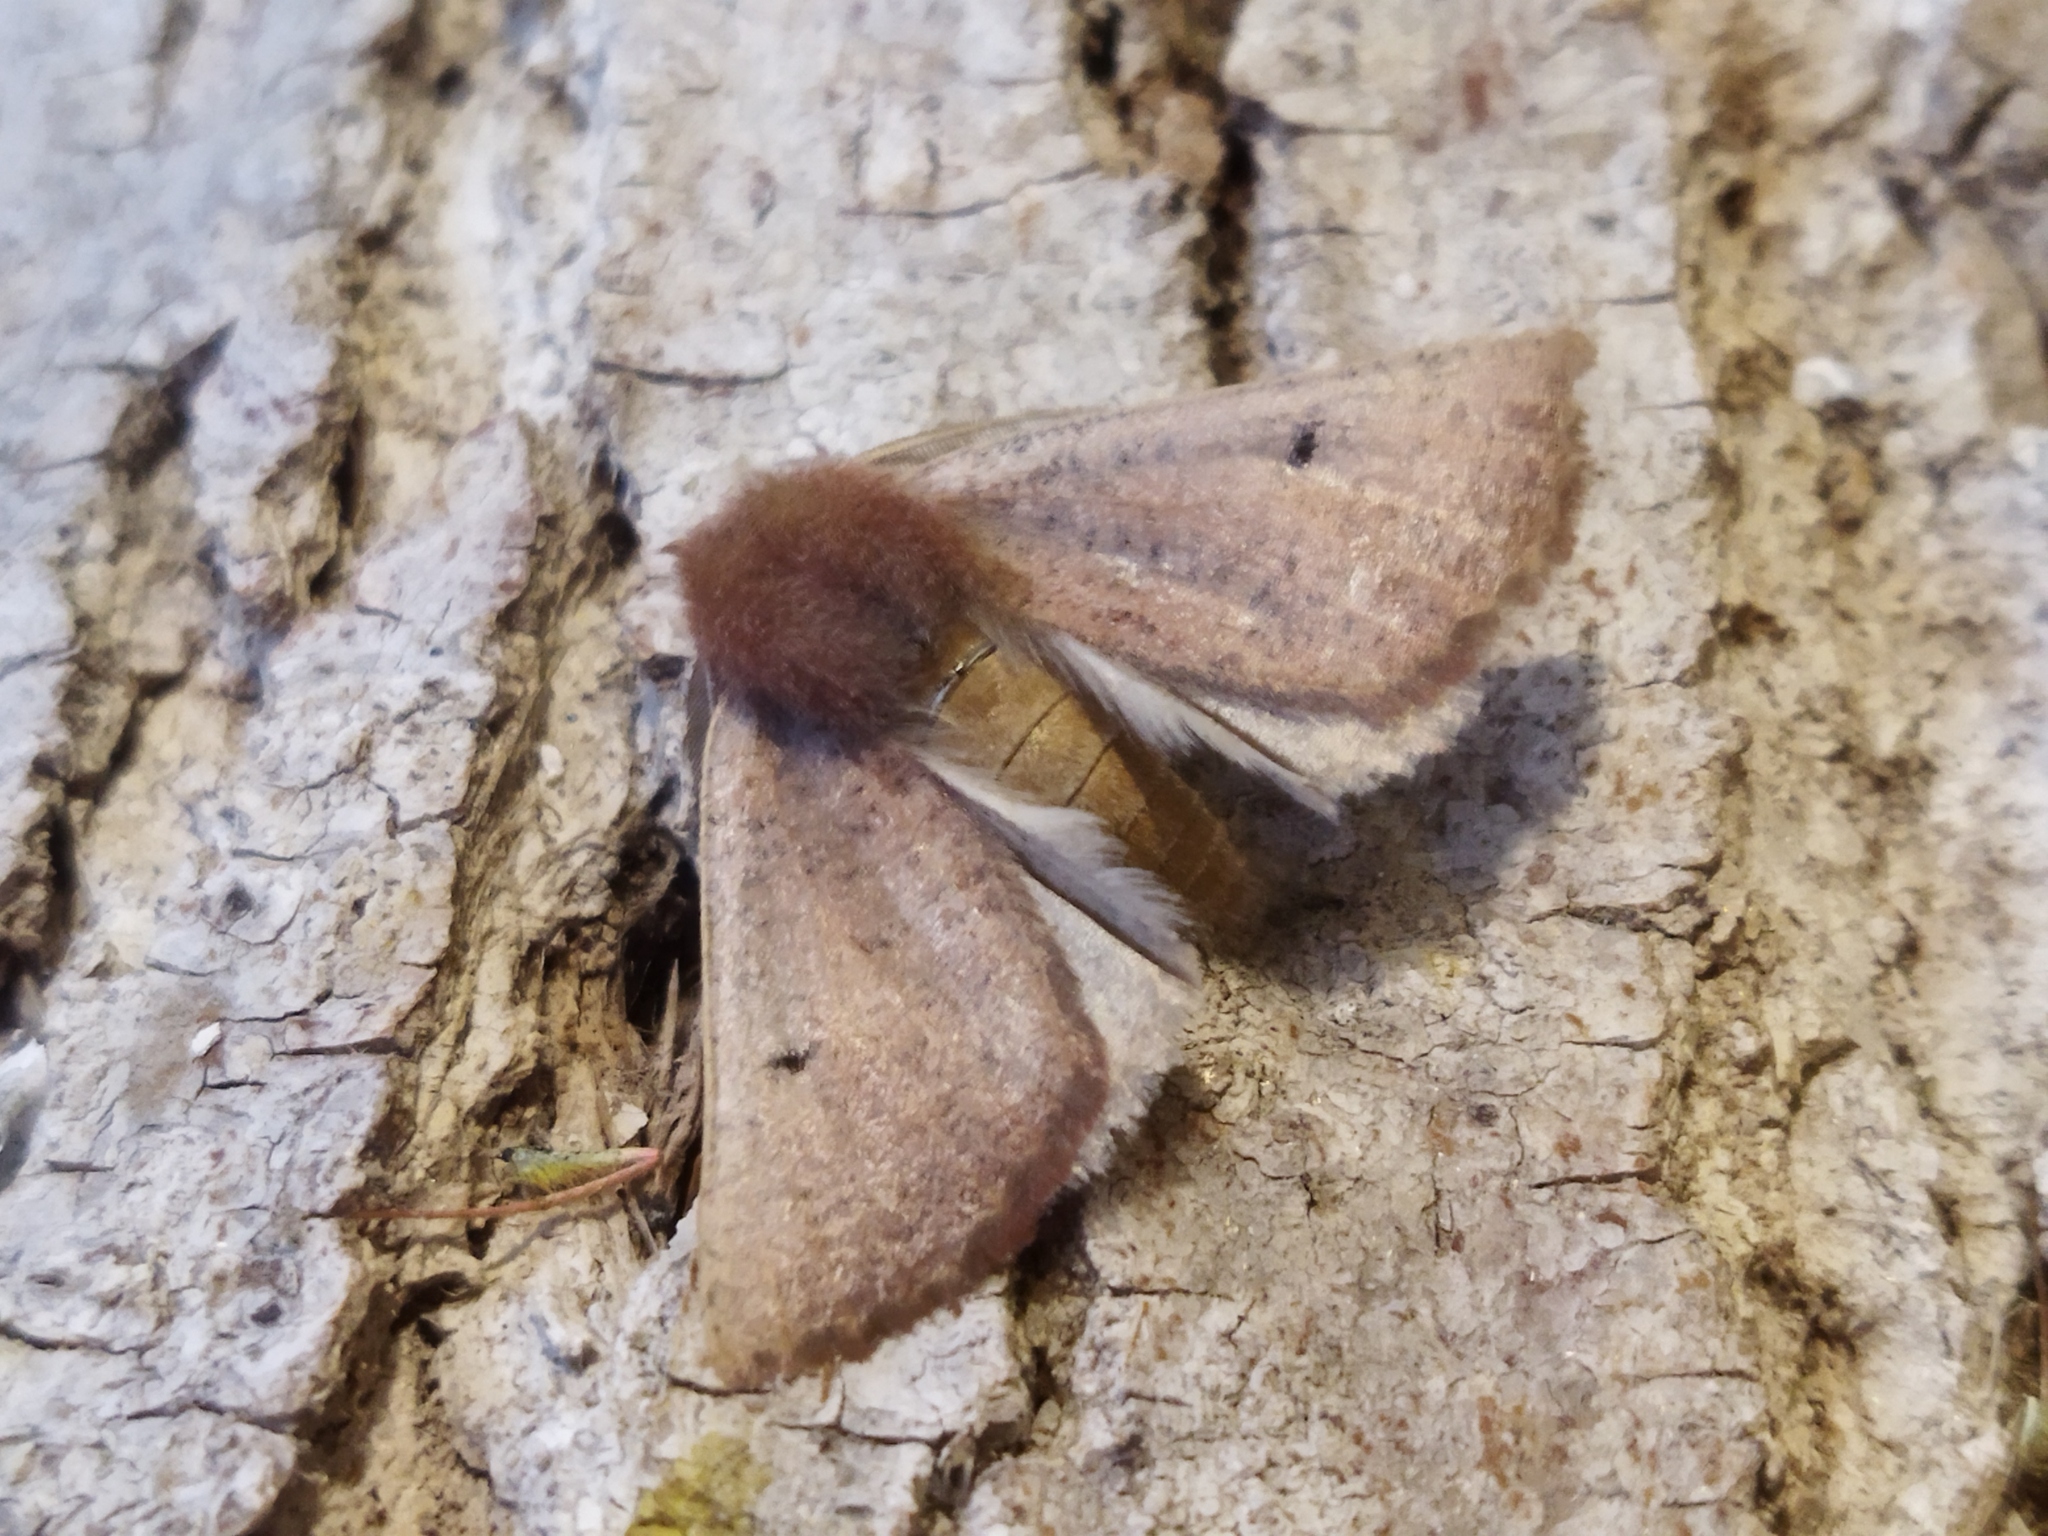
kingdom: Animalia
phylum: Arthropoda
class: Insecta
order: Lepidoptera
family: Geometridae
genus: Dasycorsa
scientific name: Dasycorsa modesta
